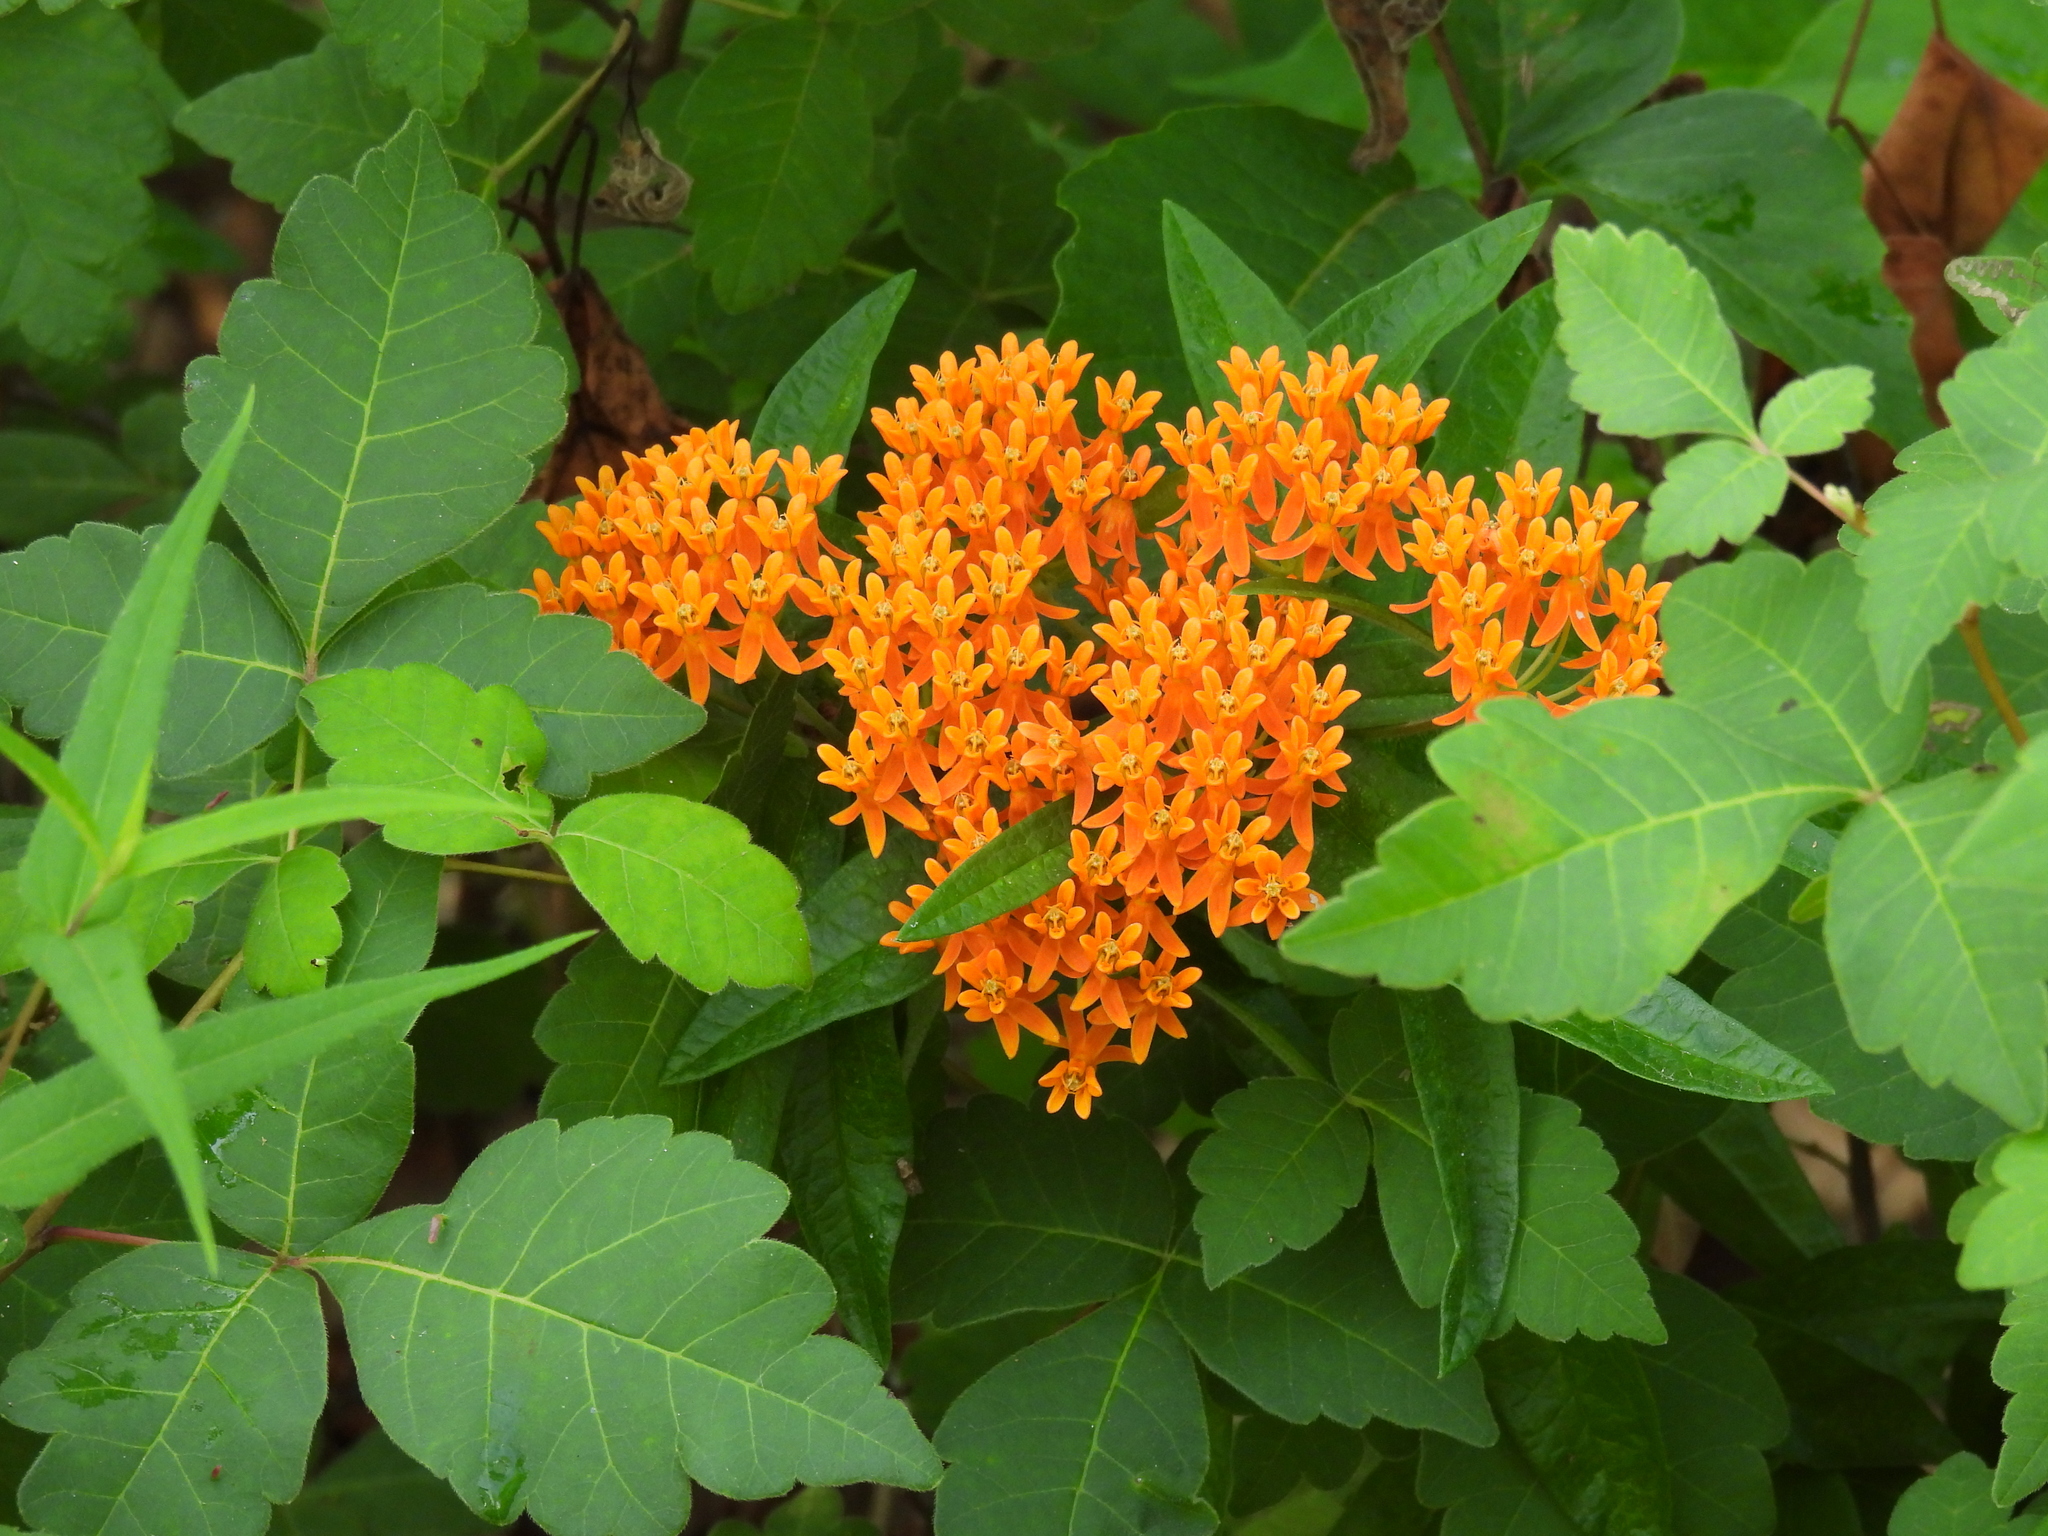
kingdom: Plantae
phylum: Tracheophyta
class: Magnoliopsida
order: Gentianales
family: Apocynaceae
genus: Asclepias
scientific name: Asclepias tuberosa
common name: Butterfly milkweed
